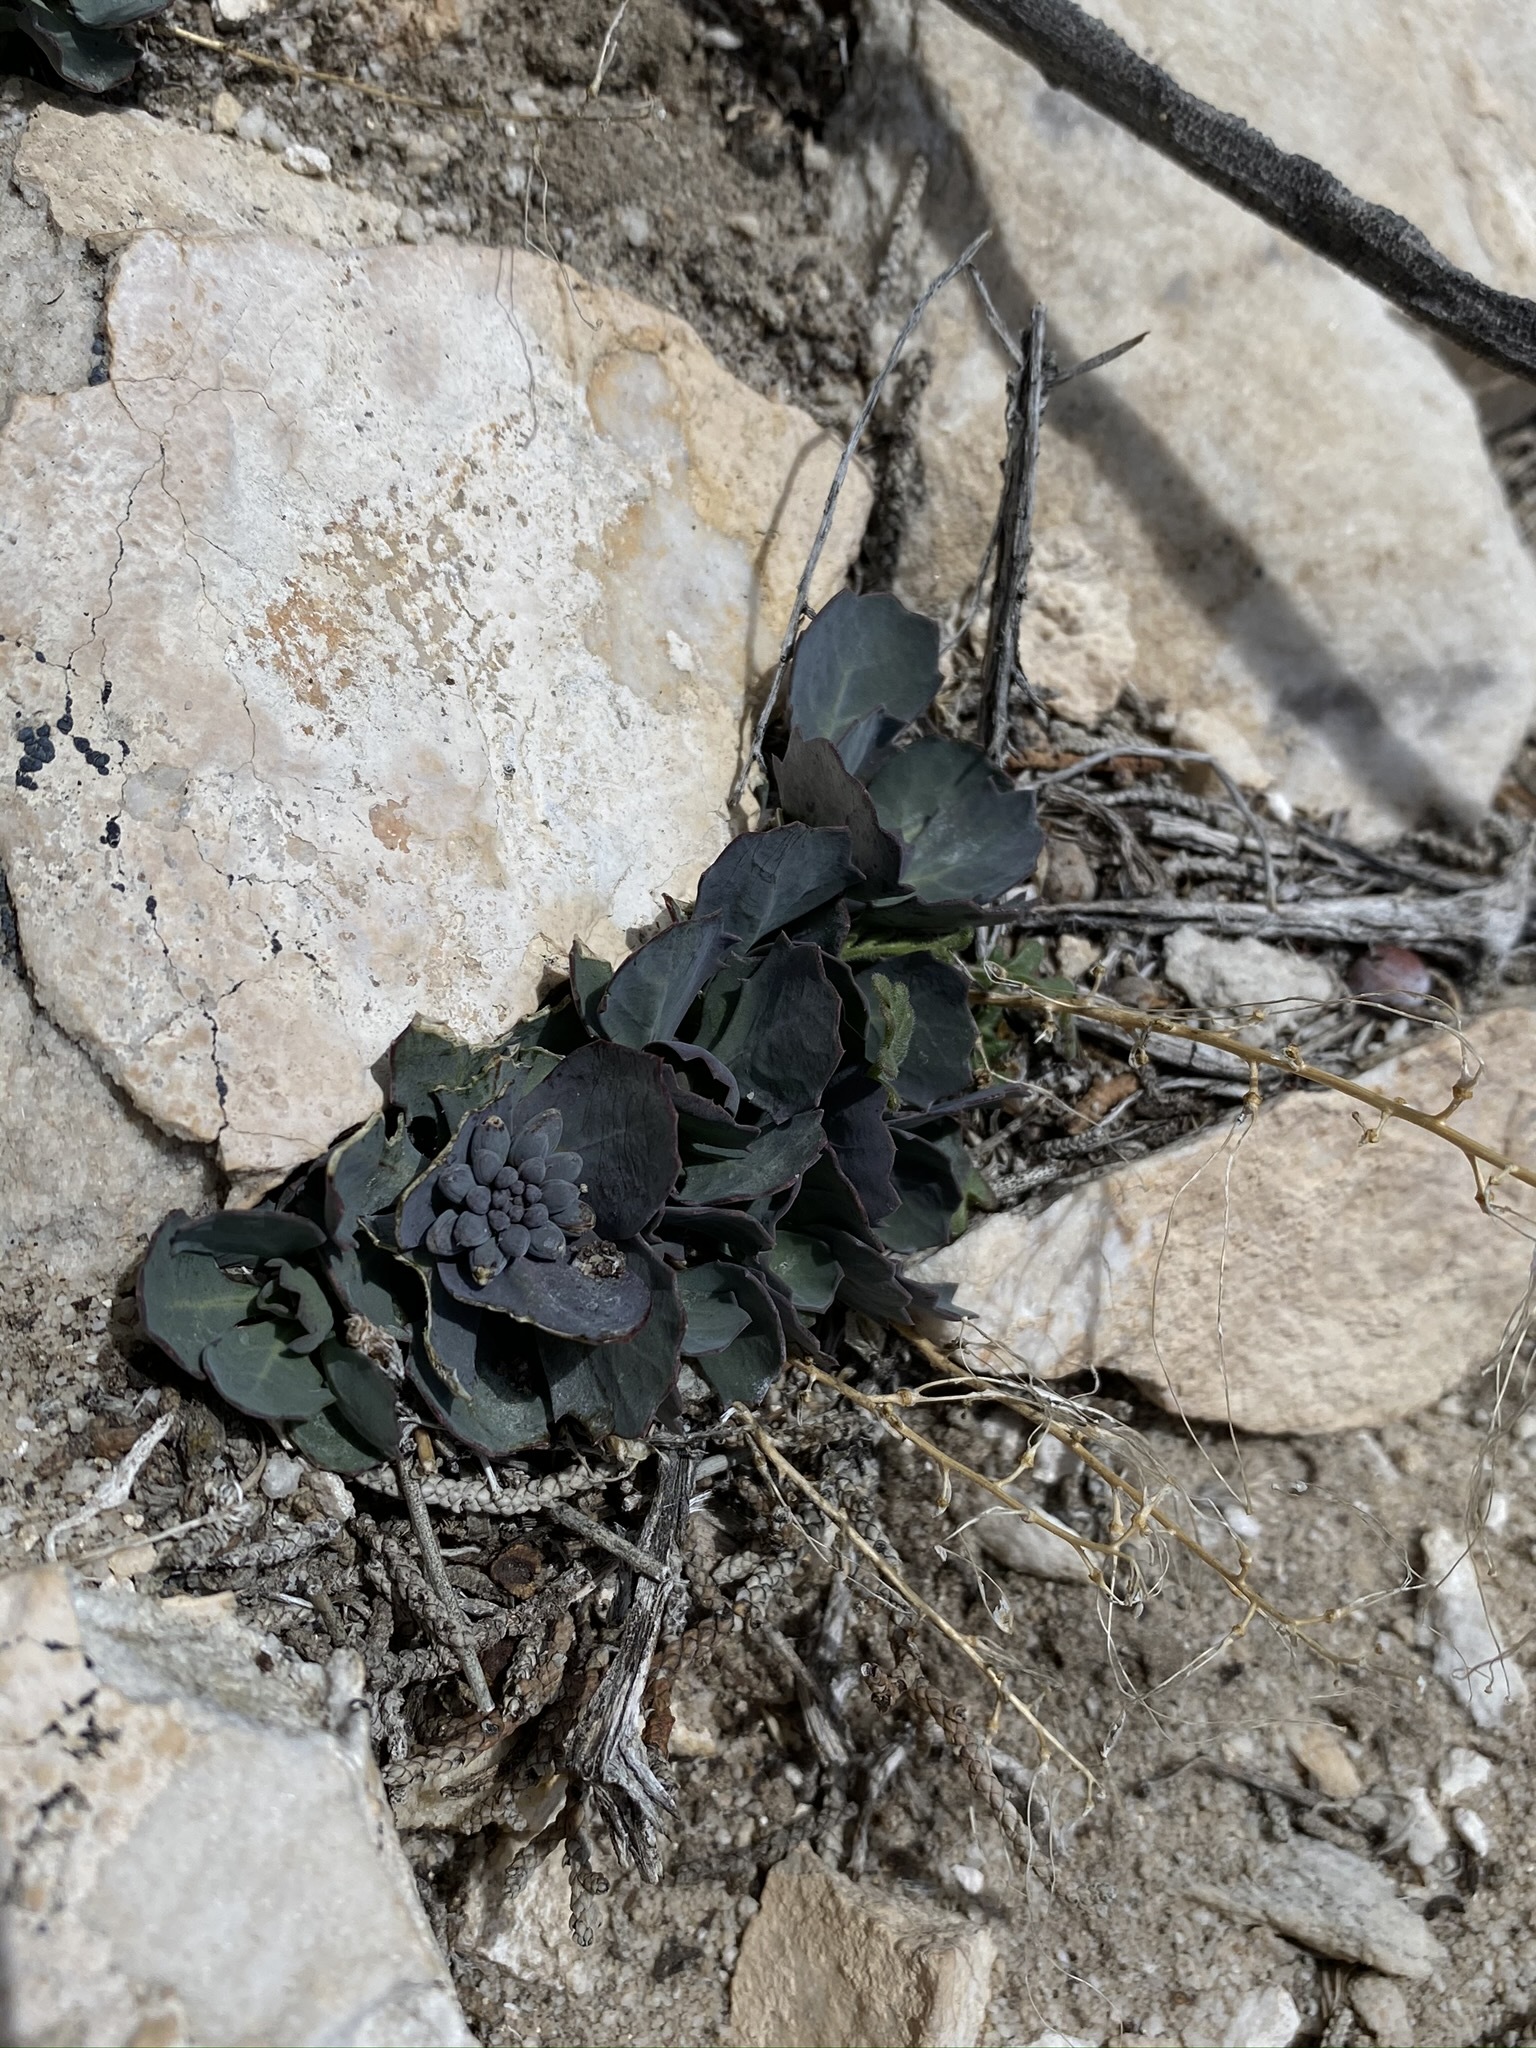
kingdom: Plantae
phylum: Tracheophyta
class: Magnoliopsida
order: Brassicales
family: Brassicaceae
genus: Streptanthus
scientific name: Streptanthus cordatus
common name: Heart-leaf jewel-flower
